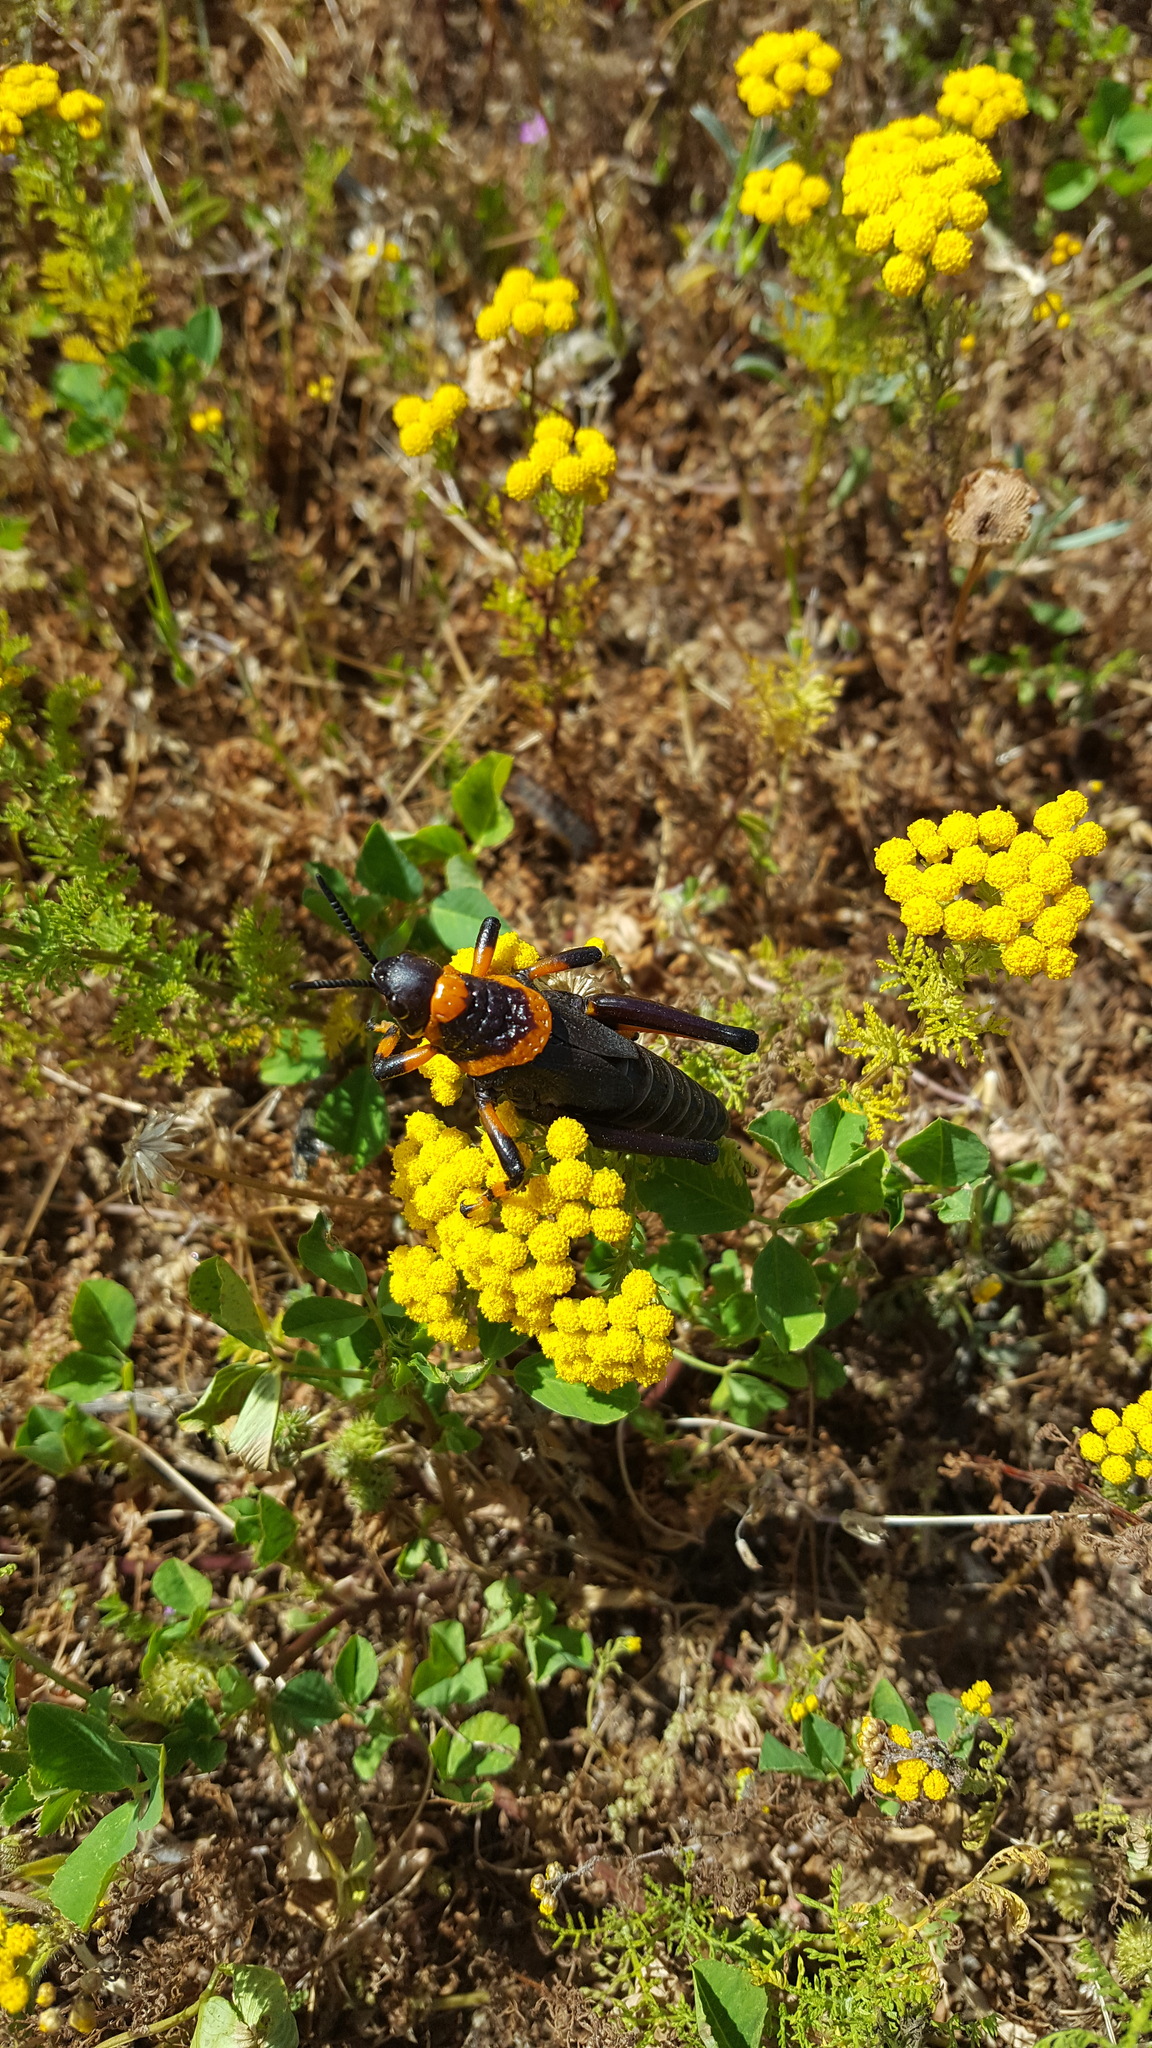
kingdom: Animalia
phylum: Arthropoda
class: Insecta
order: Orthoptera
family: Pyrgomorphidae
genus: Dictyophorus
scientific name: Dictyophorus spumans
